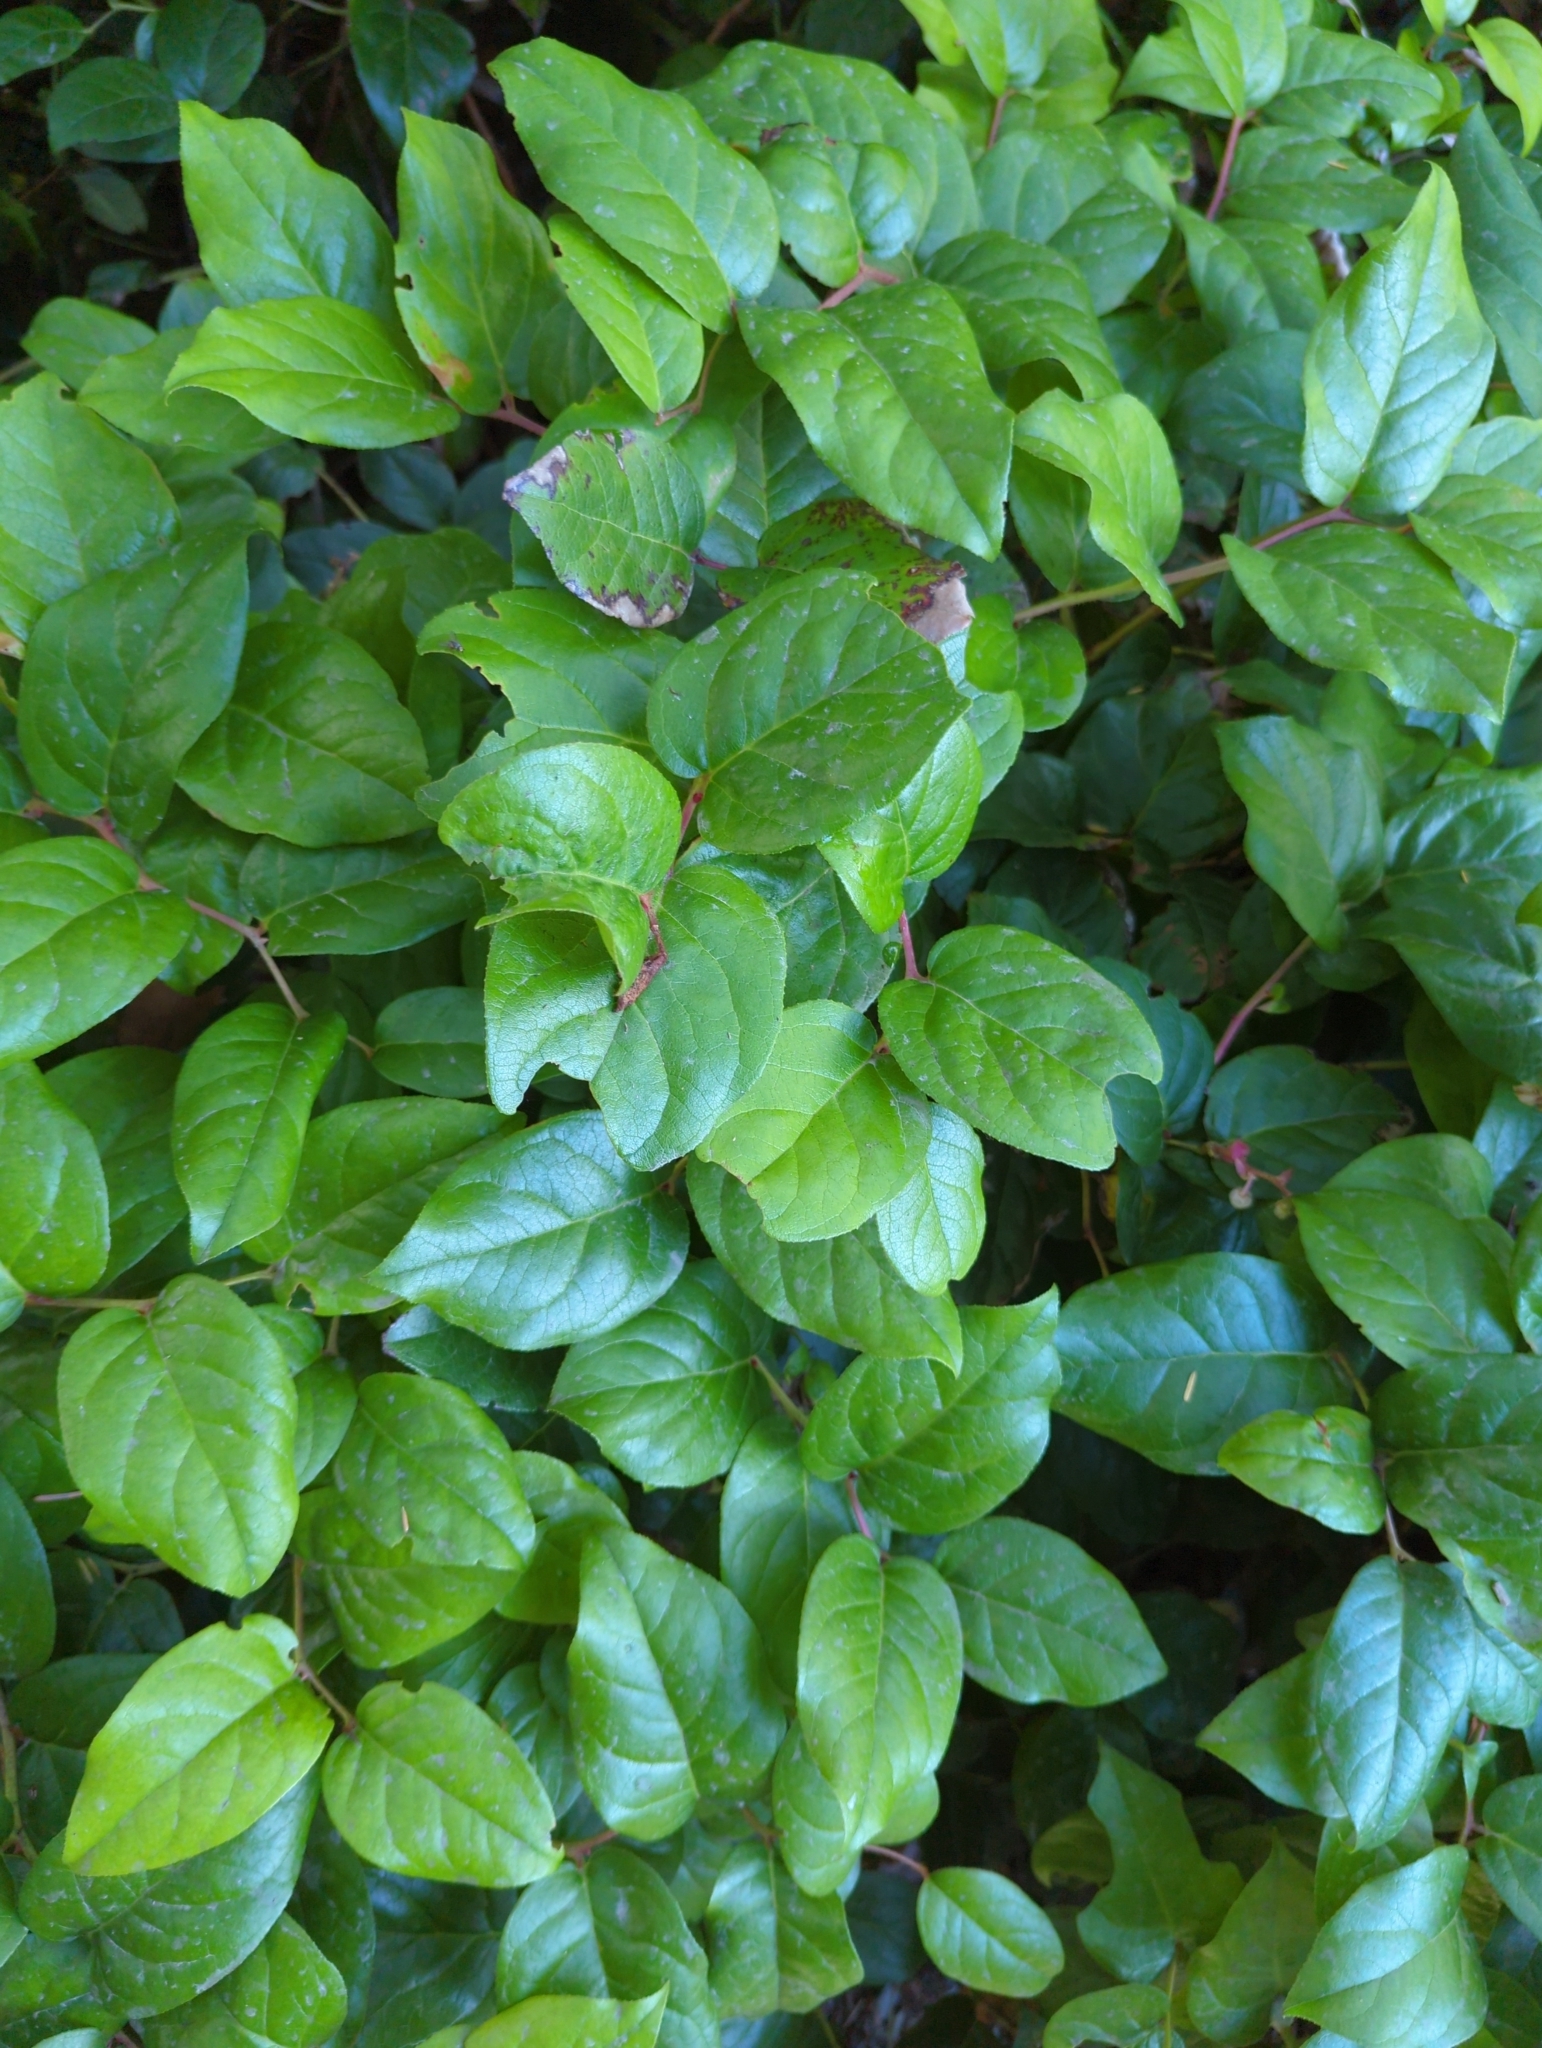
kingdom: Plantae
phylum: Tracheophyta
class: Magnoliopsida
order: Ericales
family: Ericaceae
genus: Gaultheria
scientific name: Gaultheria shallon
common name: Shallon
